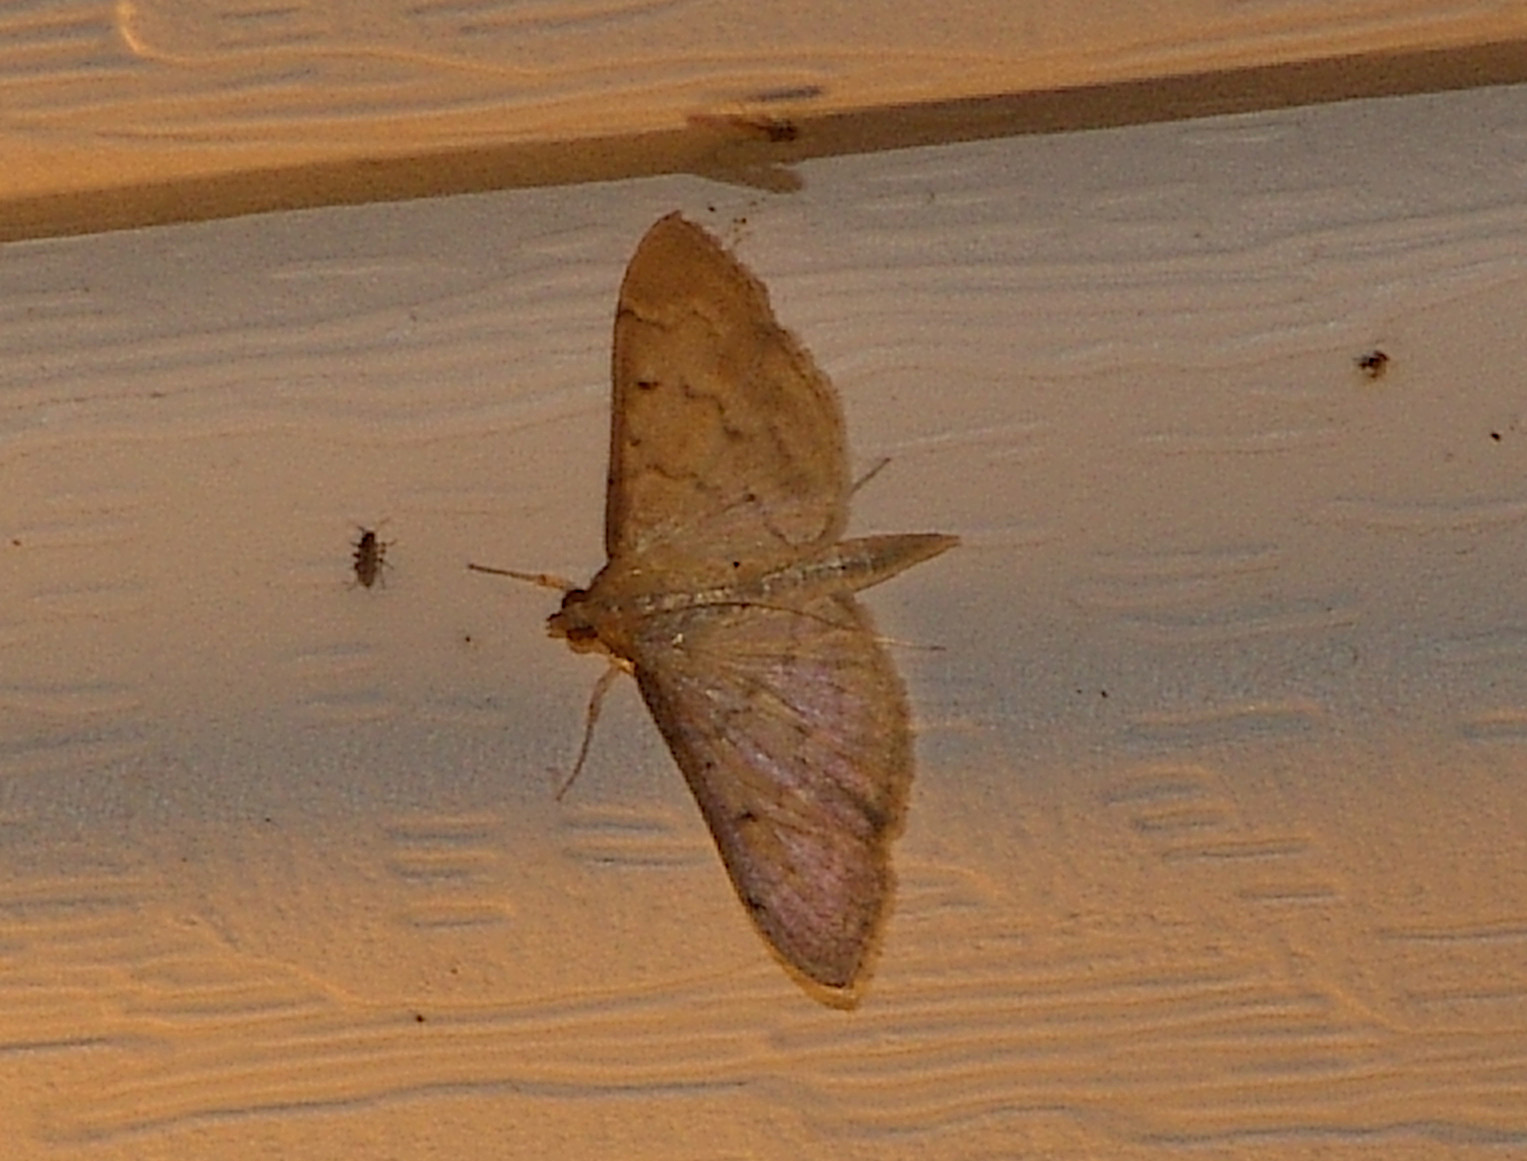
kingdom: Animalia
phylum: Arthropoda
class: Insecta
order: Lepidoptera
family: Crambidae
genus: Herpetogramma
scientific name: Herpetogramma bipunctalis
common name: Southern beet webworm
